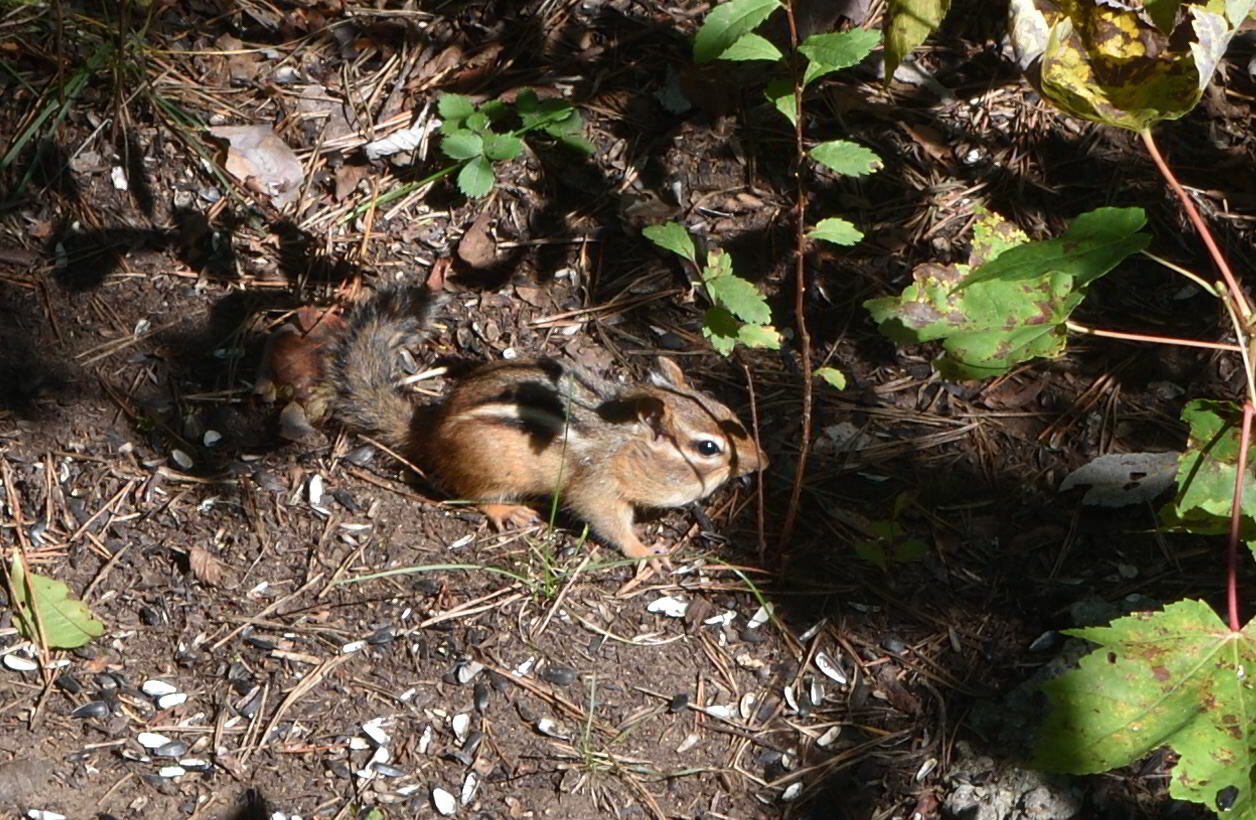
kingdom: Animalia
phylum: Chordata
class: Mammalia
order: Rodentia
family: Sciuridae
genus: Tamias
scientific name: Tamias striatus
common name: Eastern chipmunk
